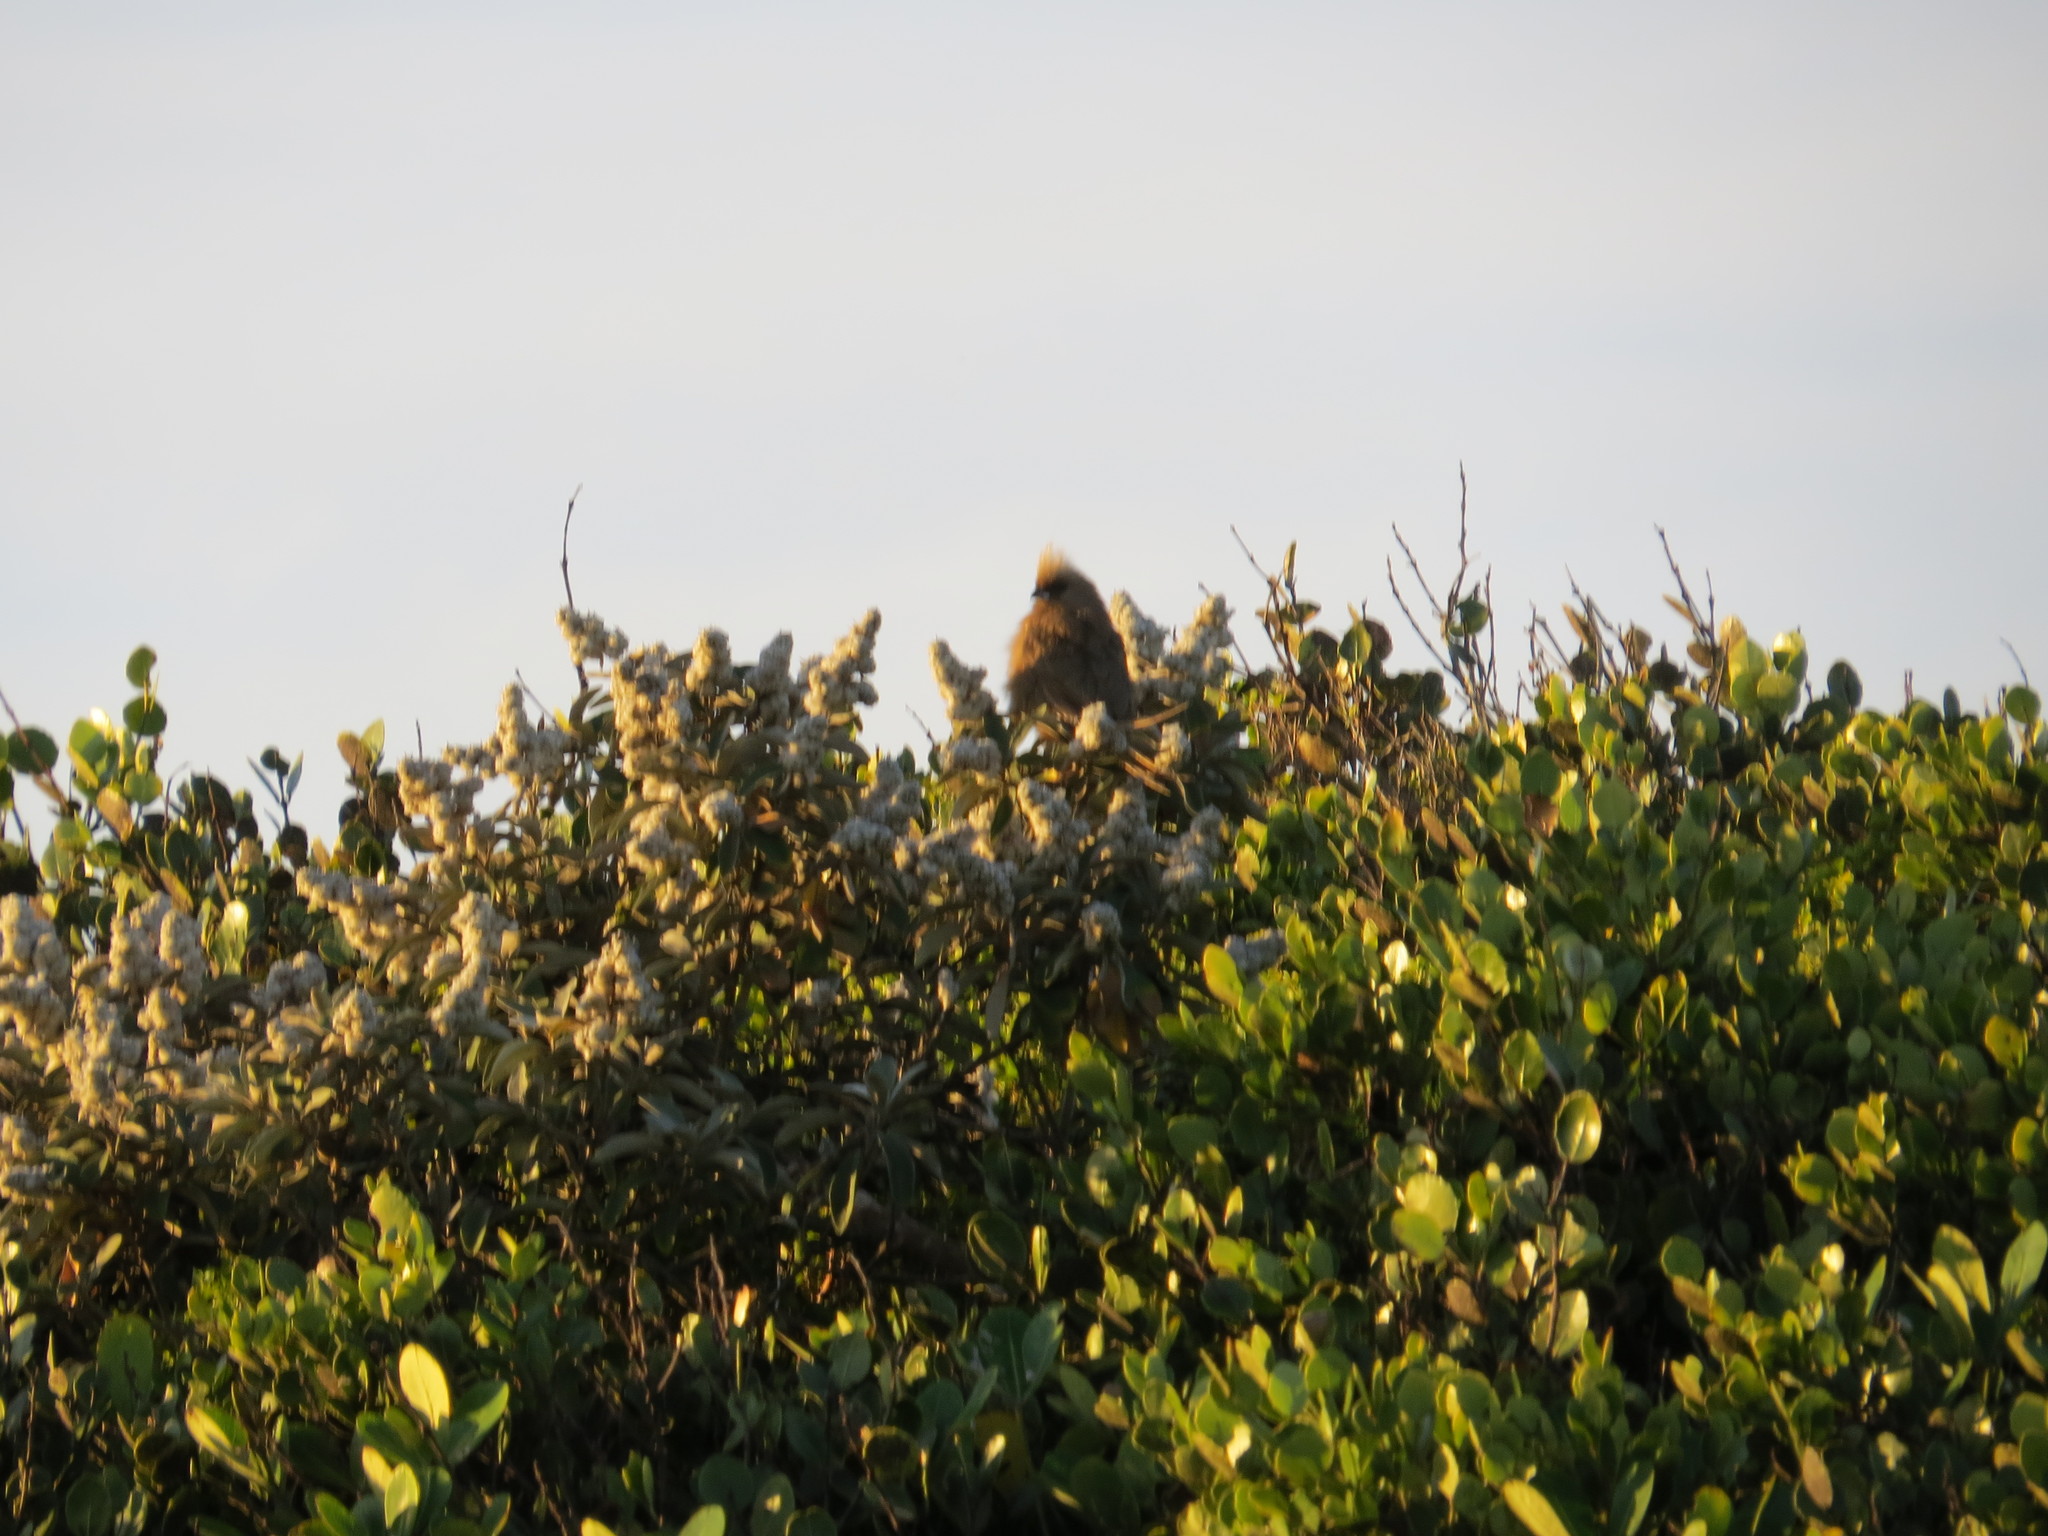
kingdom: Animalia
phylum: Chordata
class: Aves
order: Coliiformes
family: Coliidae
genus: Colius
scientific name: Colius striatus
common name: Speckled mousebird
